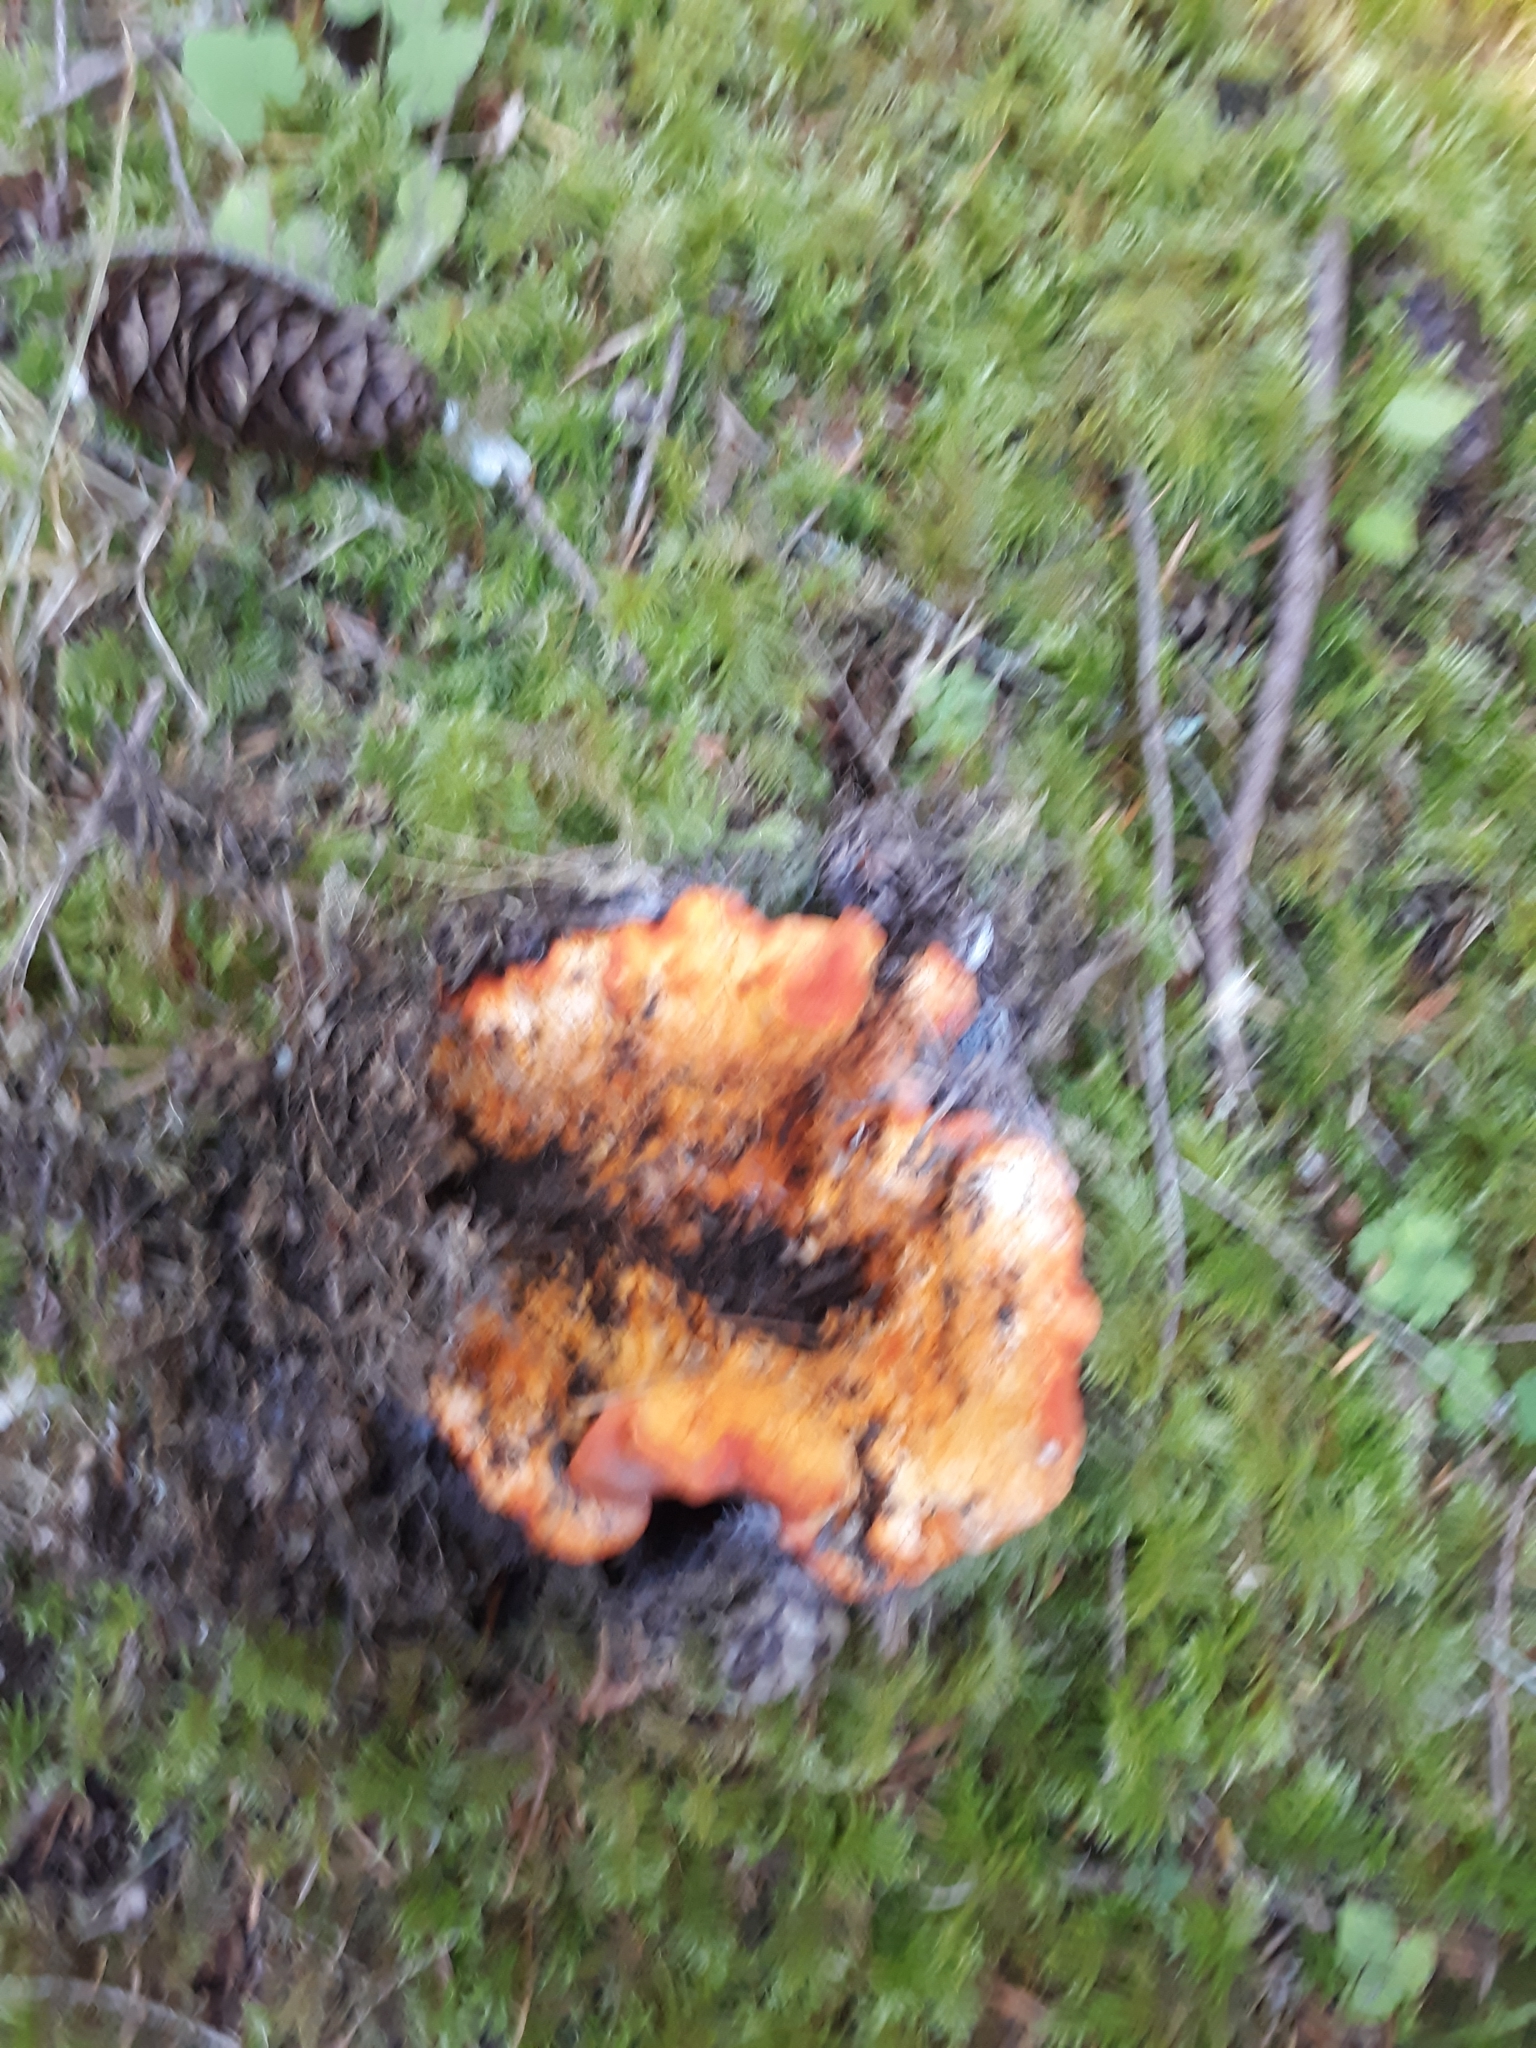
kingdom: Fungi
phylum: Ascomycota
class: Sordariomycetes
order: Hypocreales
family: Hypocreaceae
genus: Hypomyces
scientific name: Hypomyces lactifluorum
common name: Lobster mushroom
